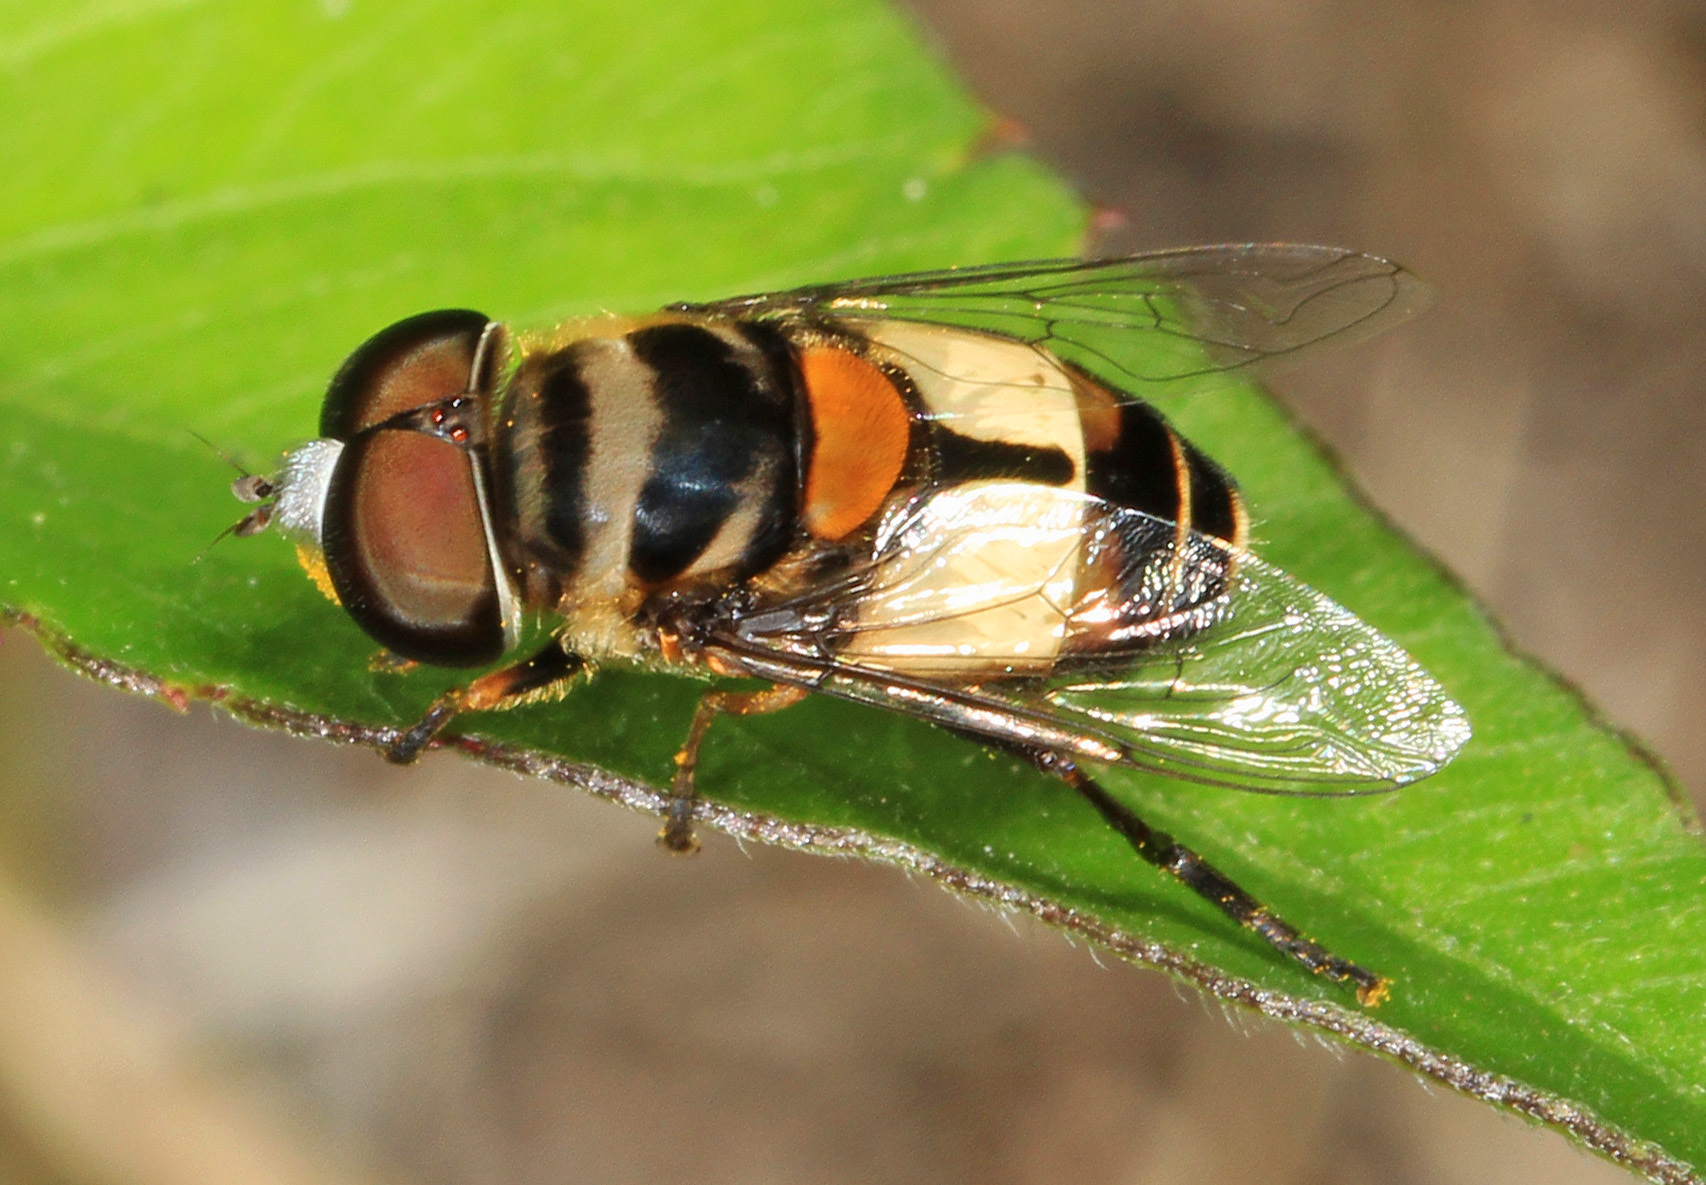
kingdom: Animalia
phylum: Arthropoda
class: Insecta
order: Diptera
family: Syrphidae
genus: Palpada
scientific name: Palpada albifrons
